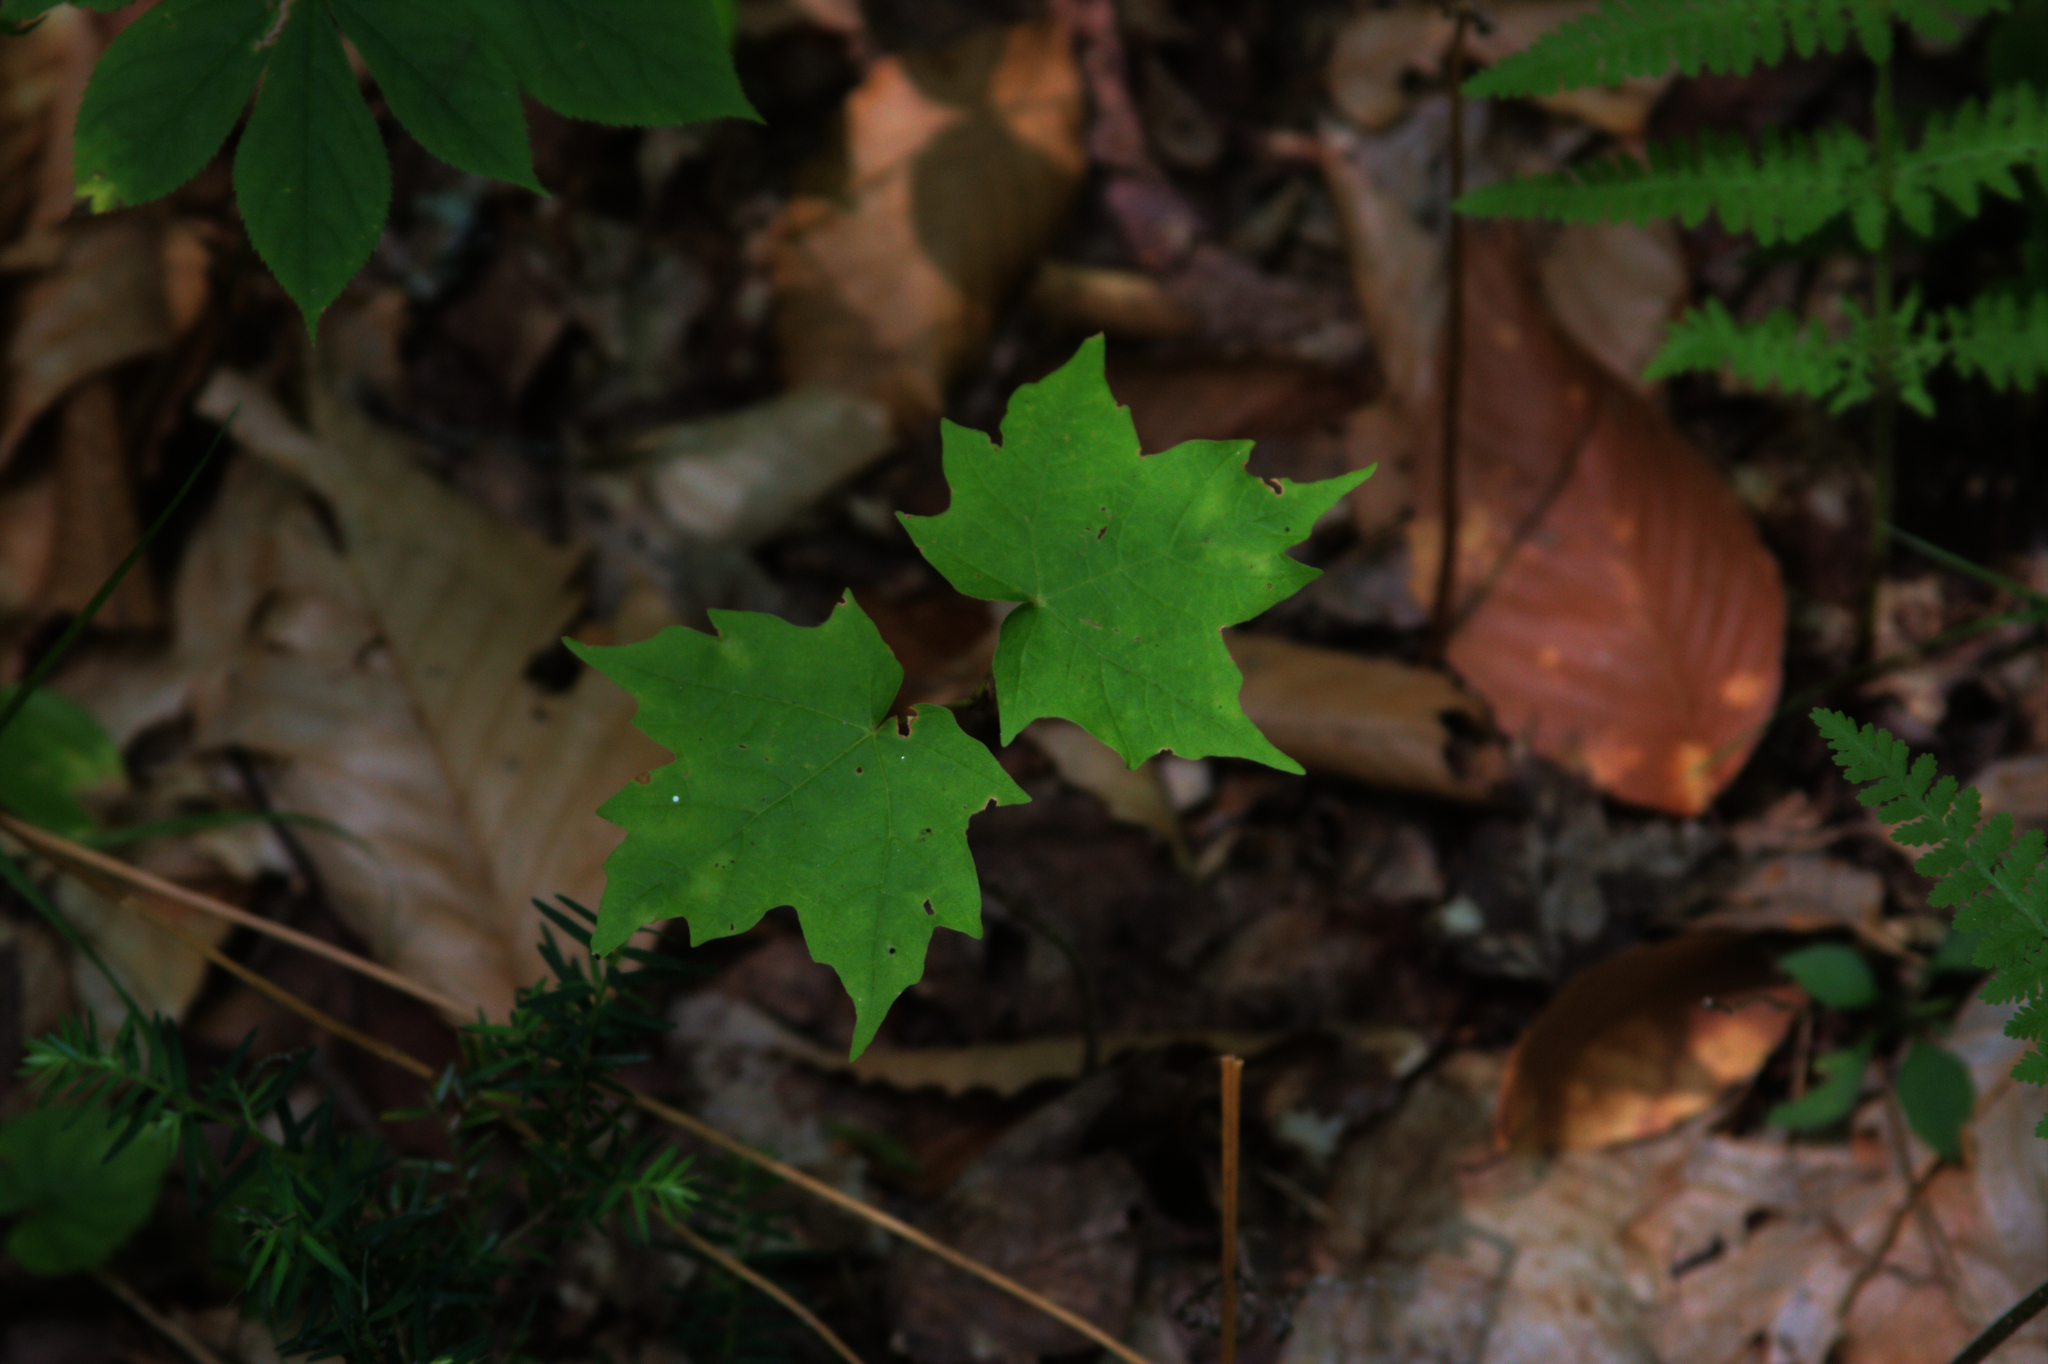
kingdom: Plantae
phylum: Tracheophyta
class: Magnoliopsida
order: Sapindales
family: Sapindaceae
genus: Acer
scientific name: Acer saccharum
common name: Sugar maple
